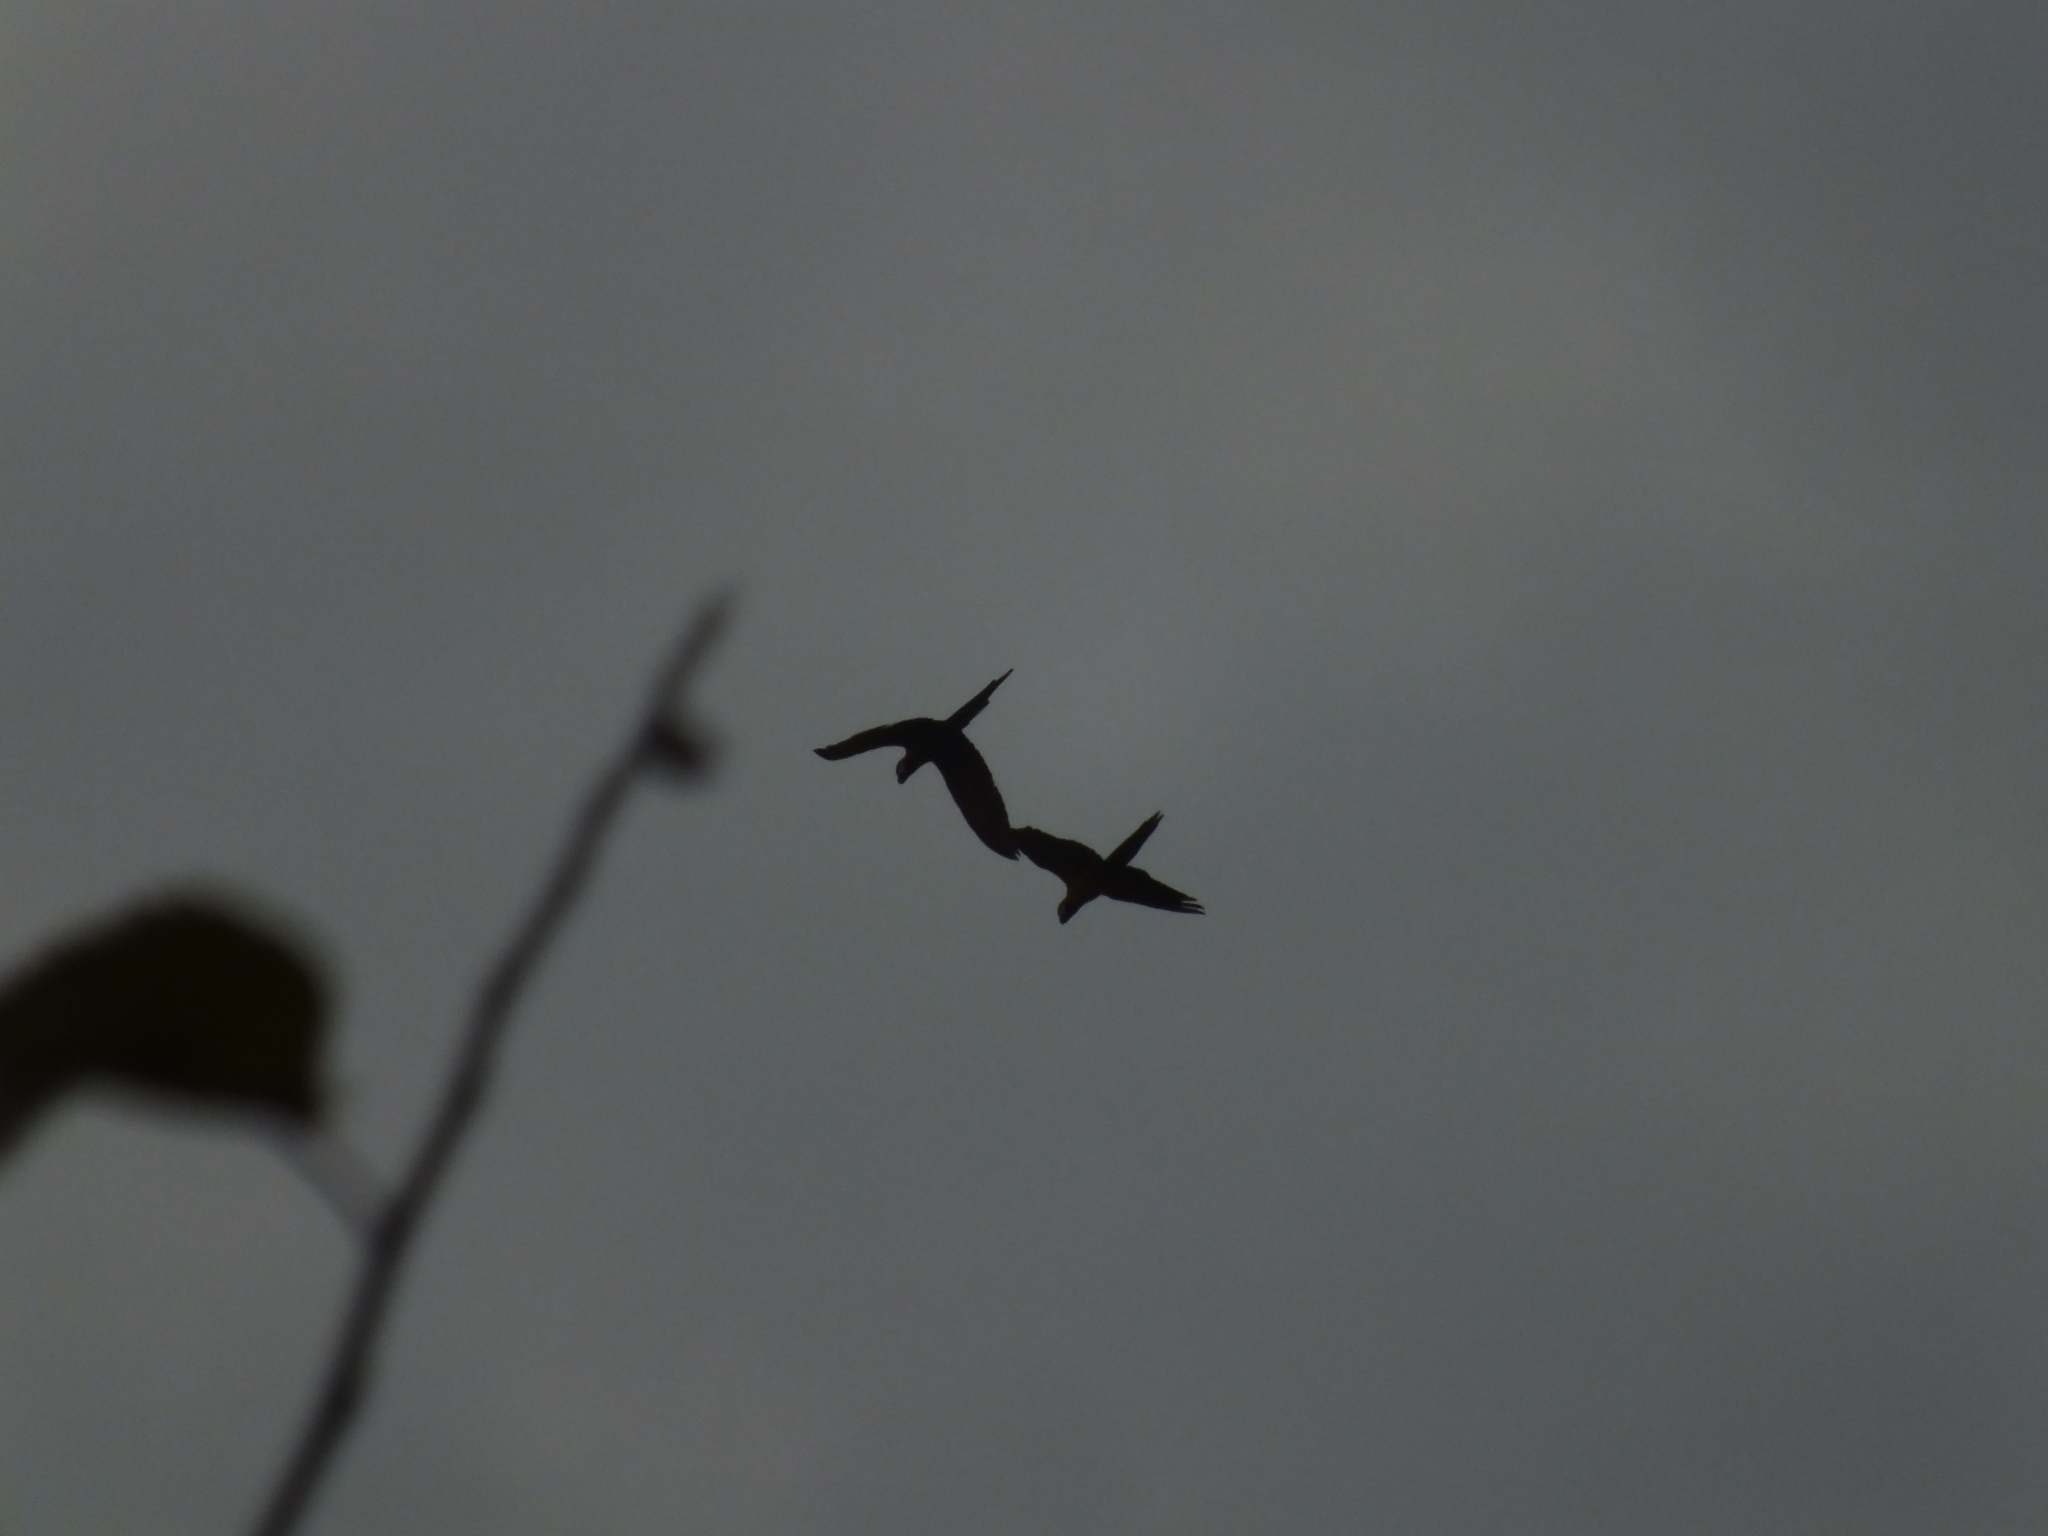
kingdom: Animalia
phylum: Chordata
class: Aves
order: Psittaciformes
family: Psittacidae
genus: Ara
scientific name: Ara
